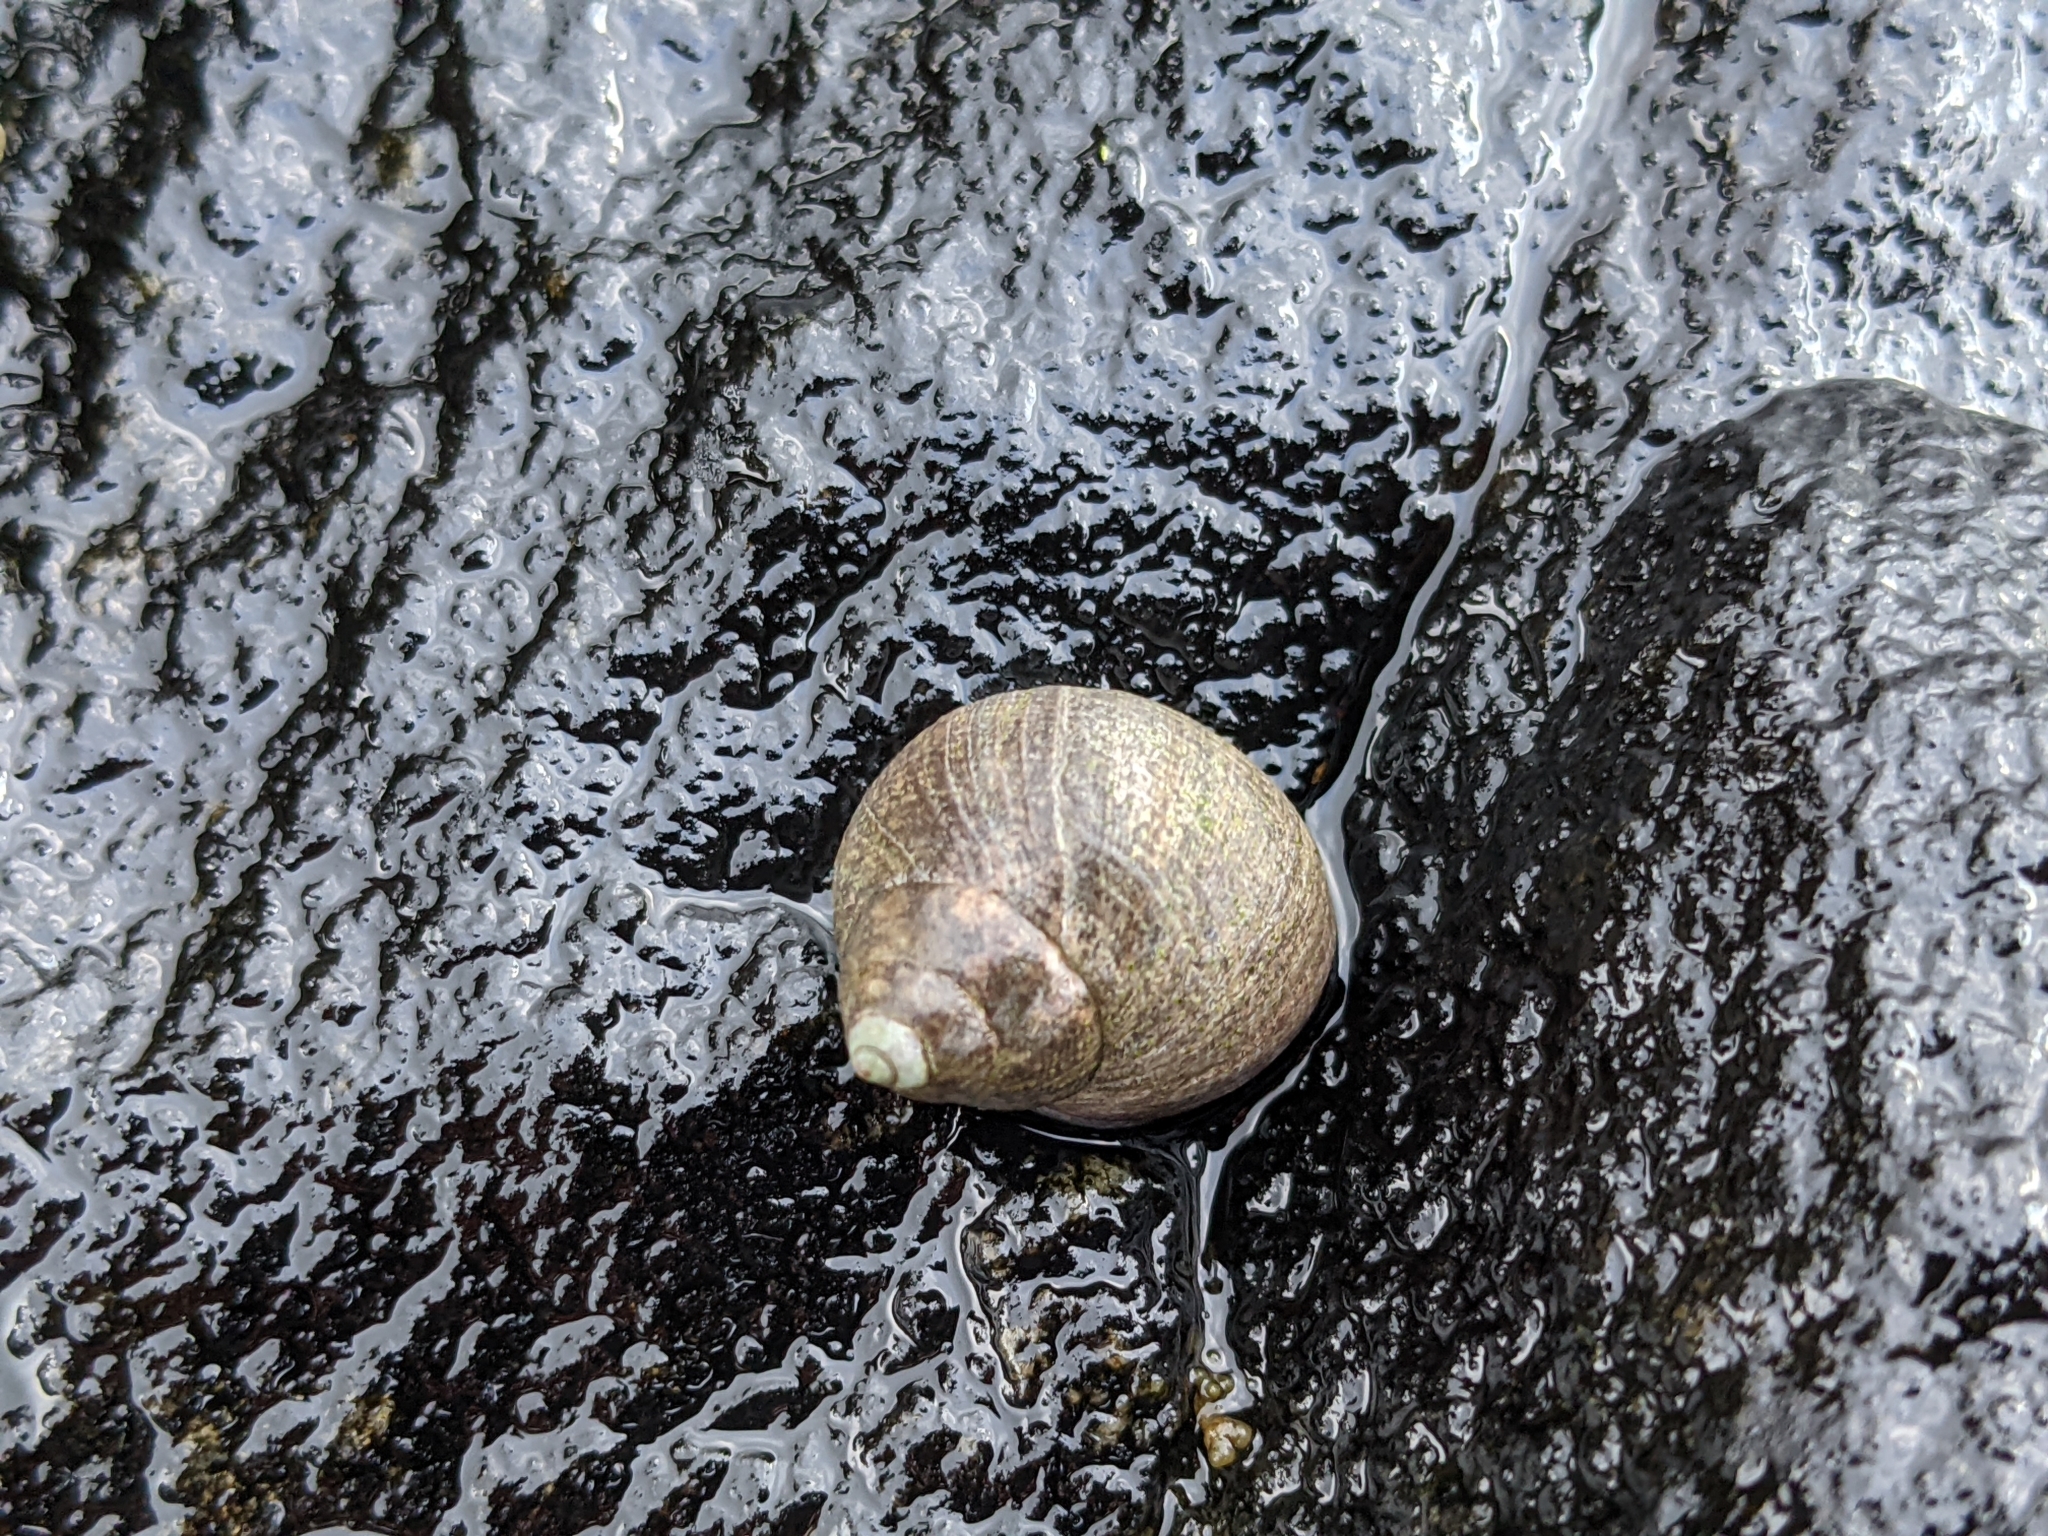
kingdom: Animalia
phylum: Mollusca
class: Gastropoda
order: Littorinimorpha
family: Littorinidae
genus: Littorina
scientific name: Littorina littorea
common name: Common periwinkle
